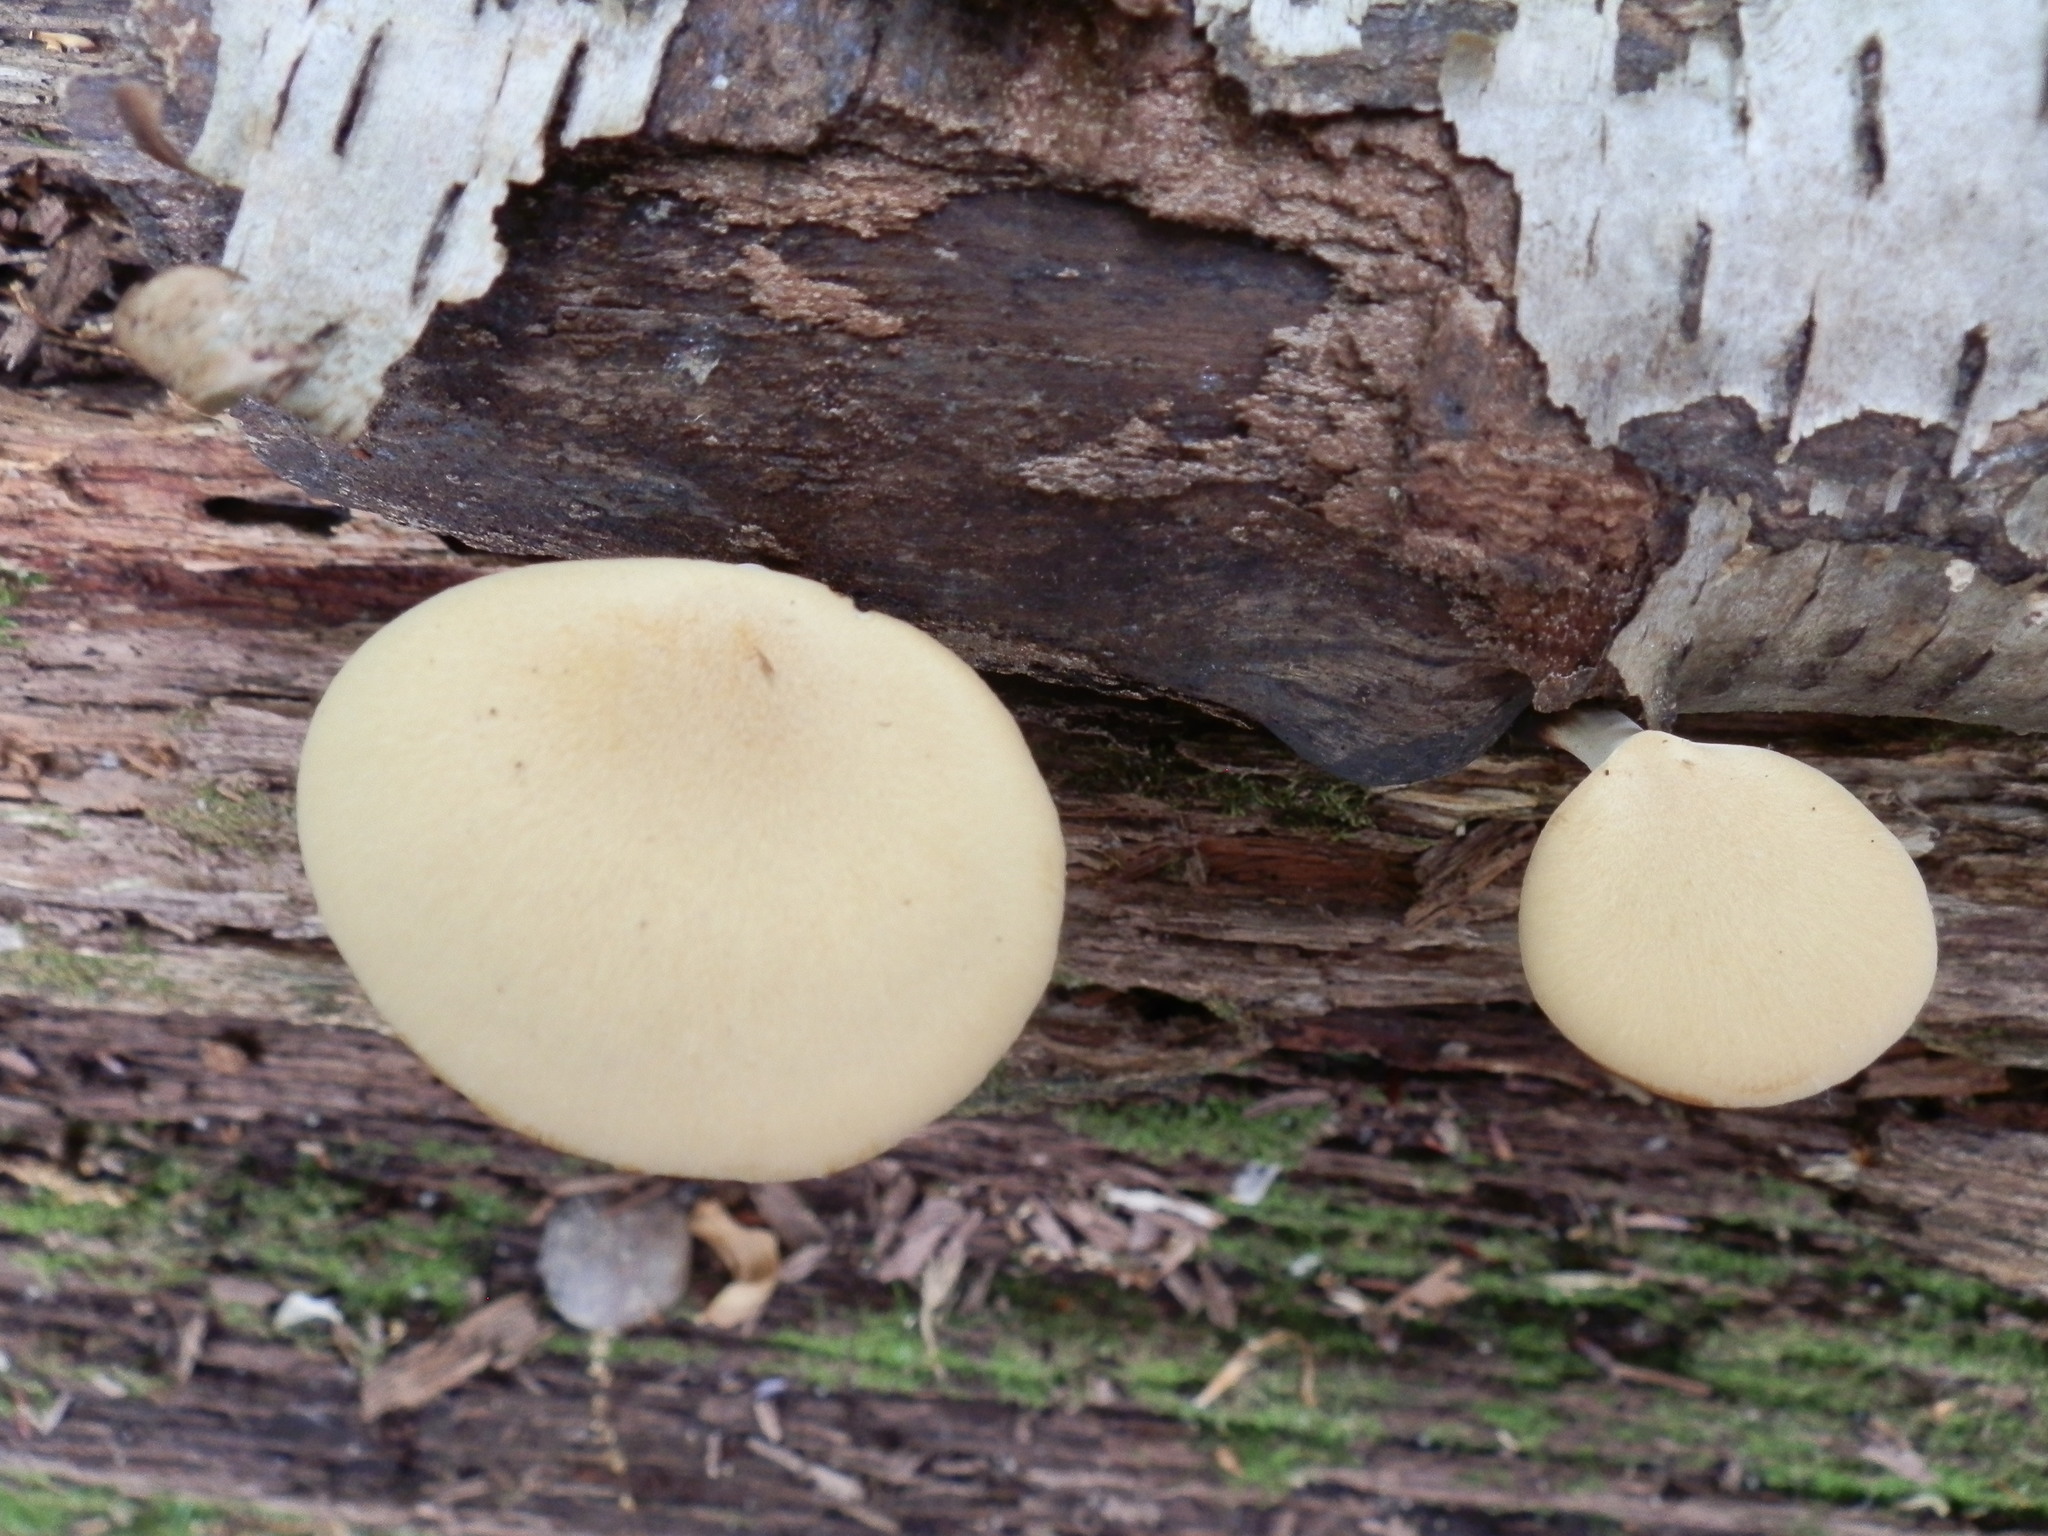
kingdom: Fungi
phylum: Basidiomycota
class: Agaricomycetes
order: Polyporales
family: Polyporaceae
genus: Cerioporus
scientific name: Cerioporus leptocephalus
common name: Blackfoot polypore
